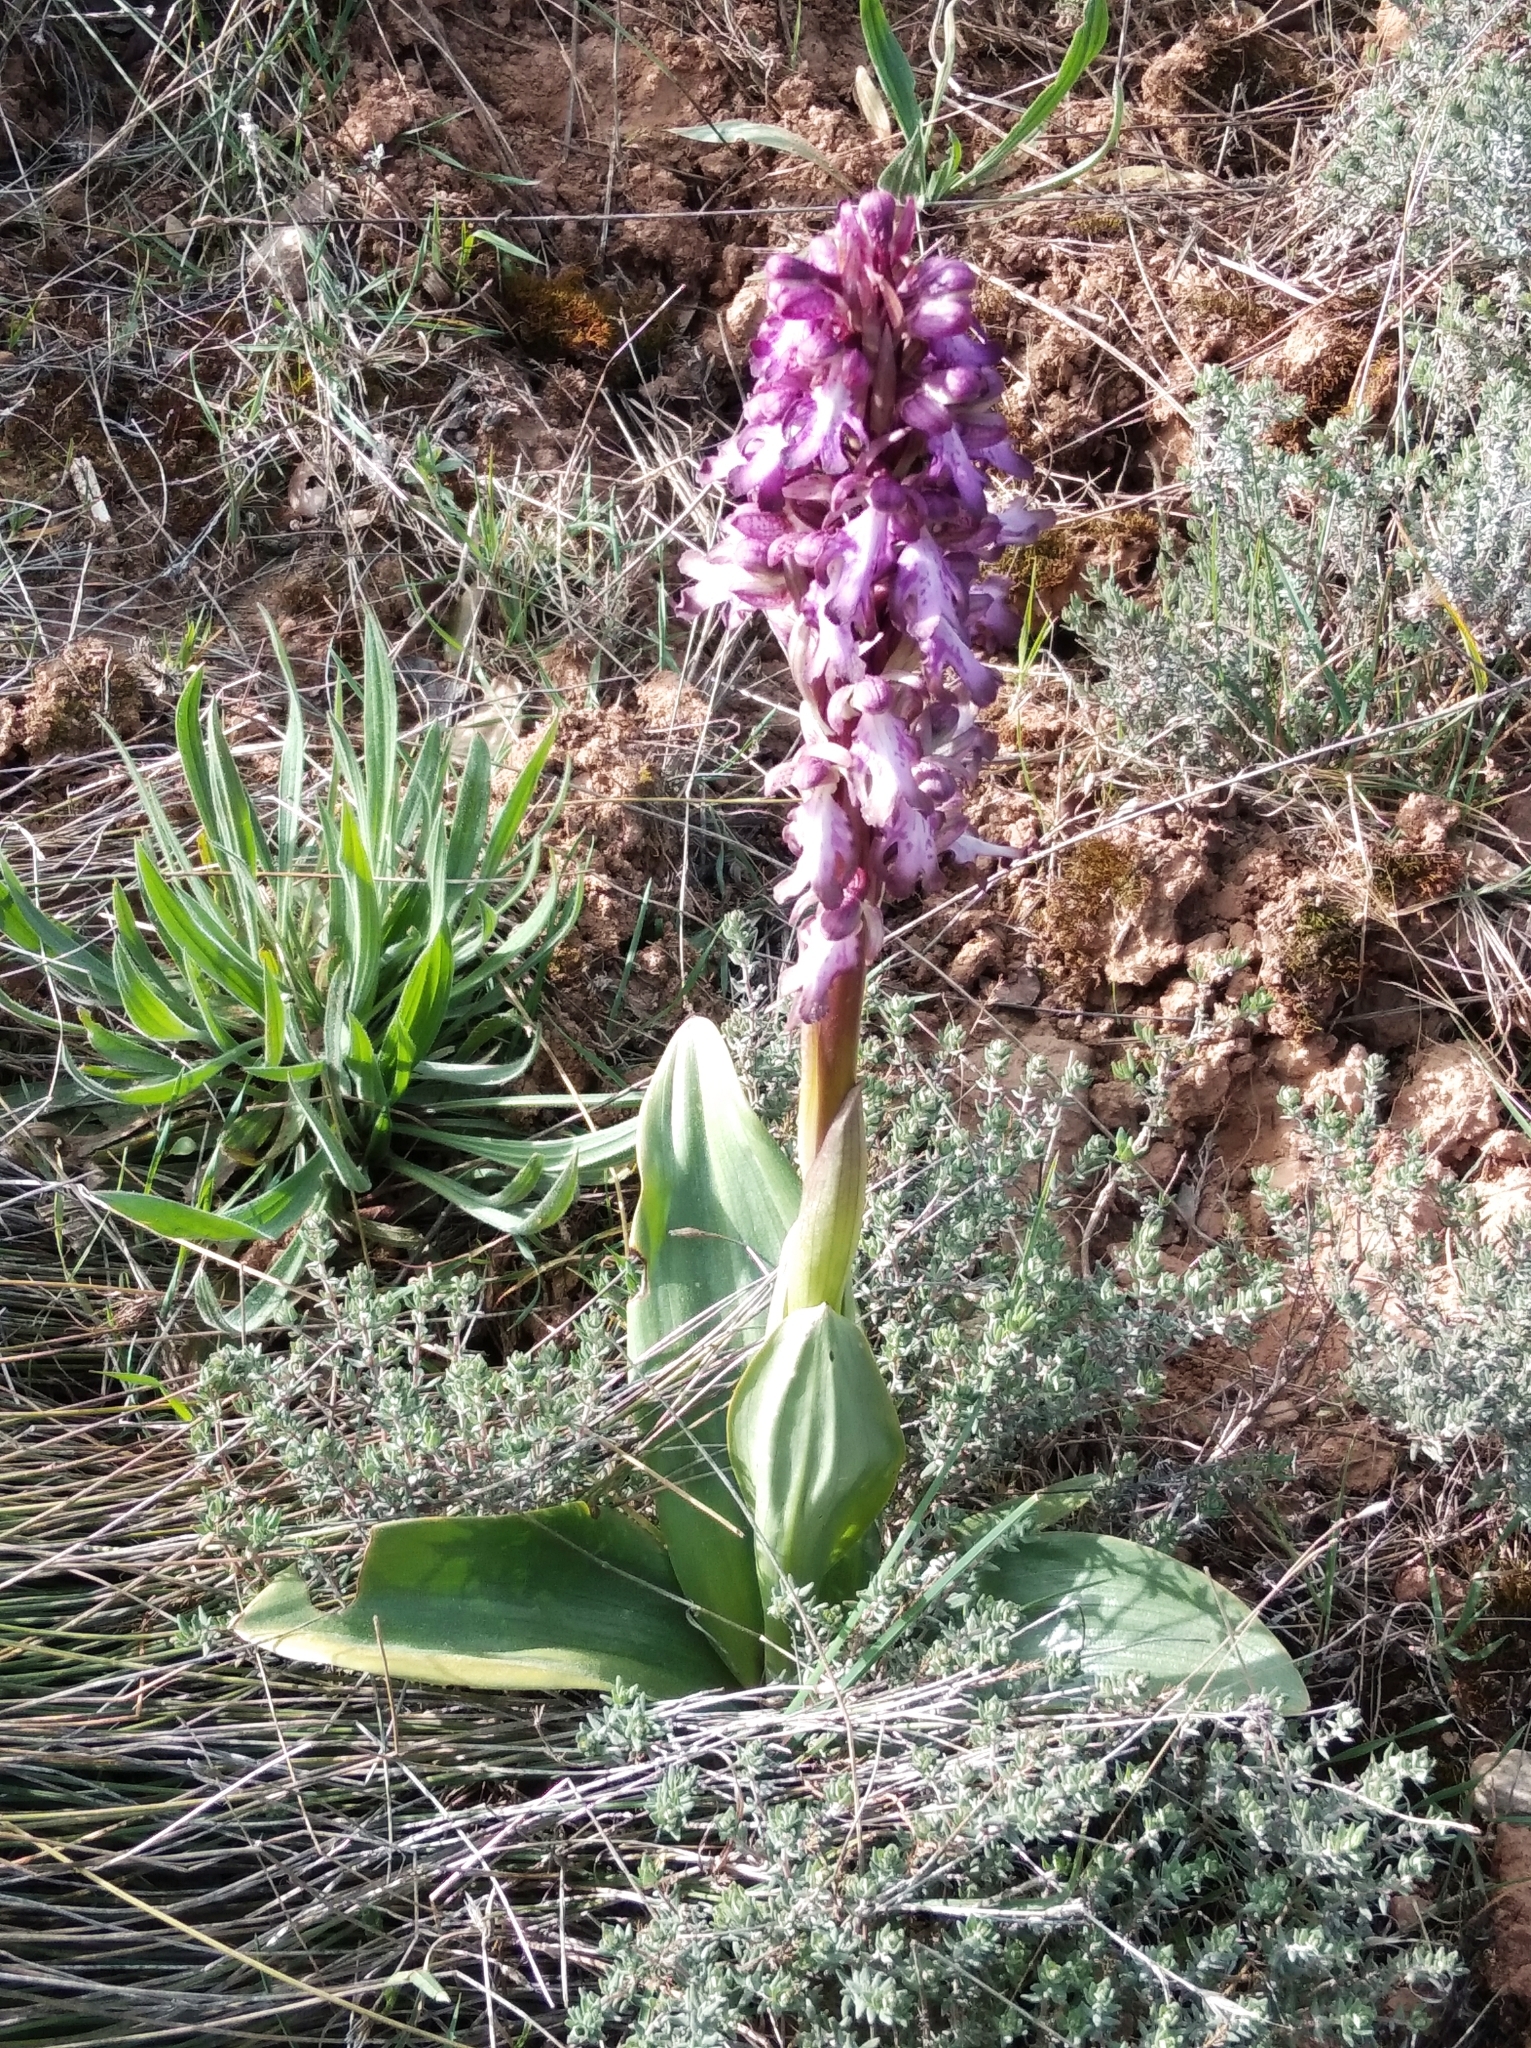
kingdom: Plantae
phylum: Tracheophyta
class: Liliopsida
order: Asparagales
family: Orchidaceae
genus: Himantoglossum
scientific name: Himantoglossum robertianum
